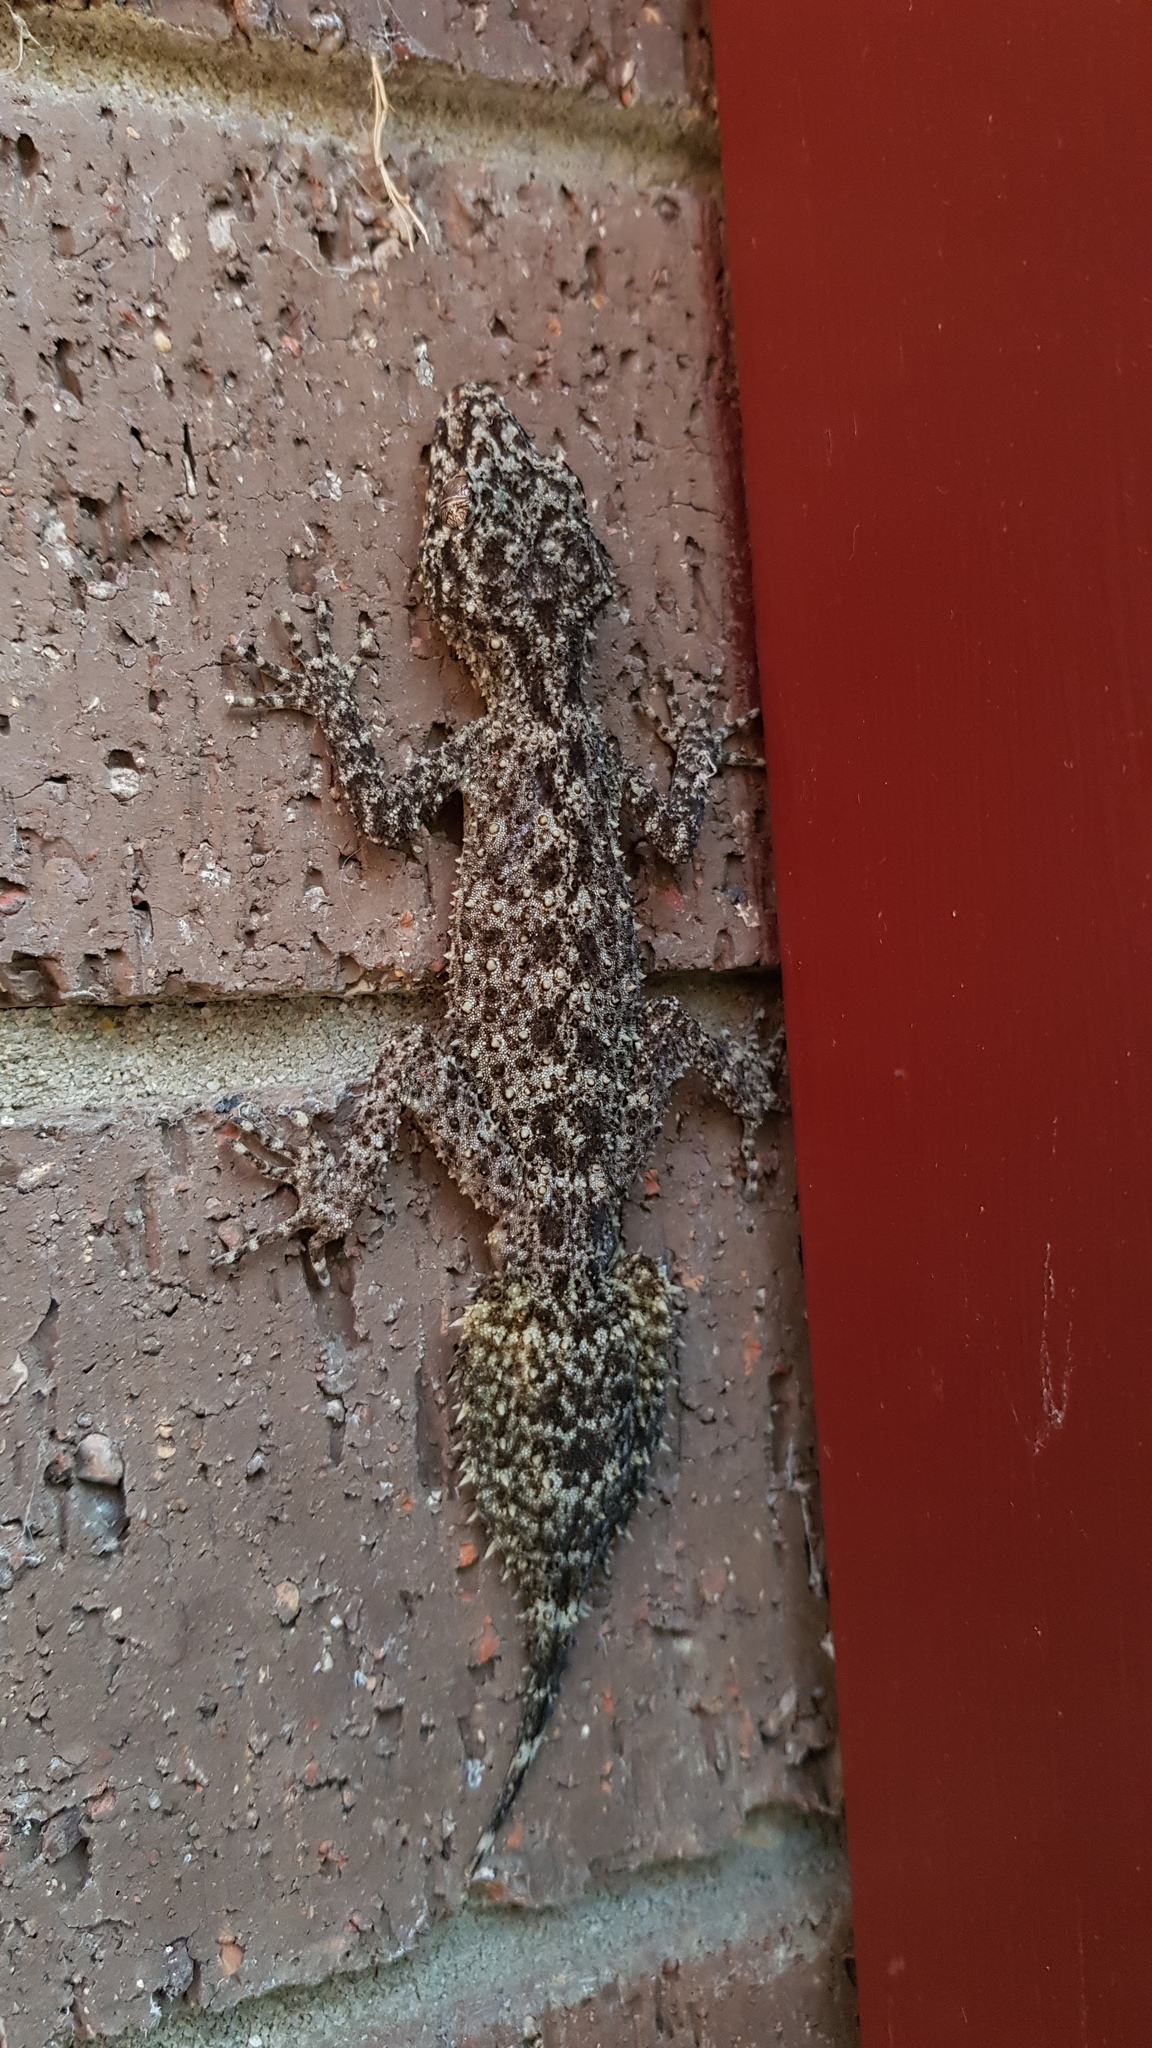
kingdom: Animalia
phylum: Chordata
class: Squamata
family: Carphodactylidae
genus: Phyllurus
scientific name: Phyllurus platurus
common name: Broad-tailed gecko
